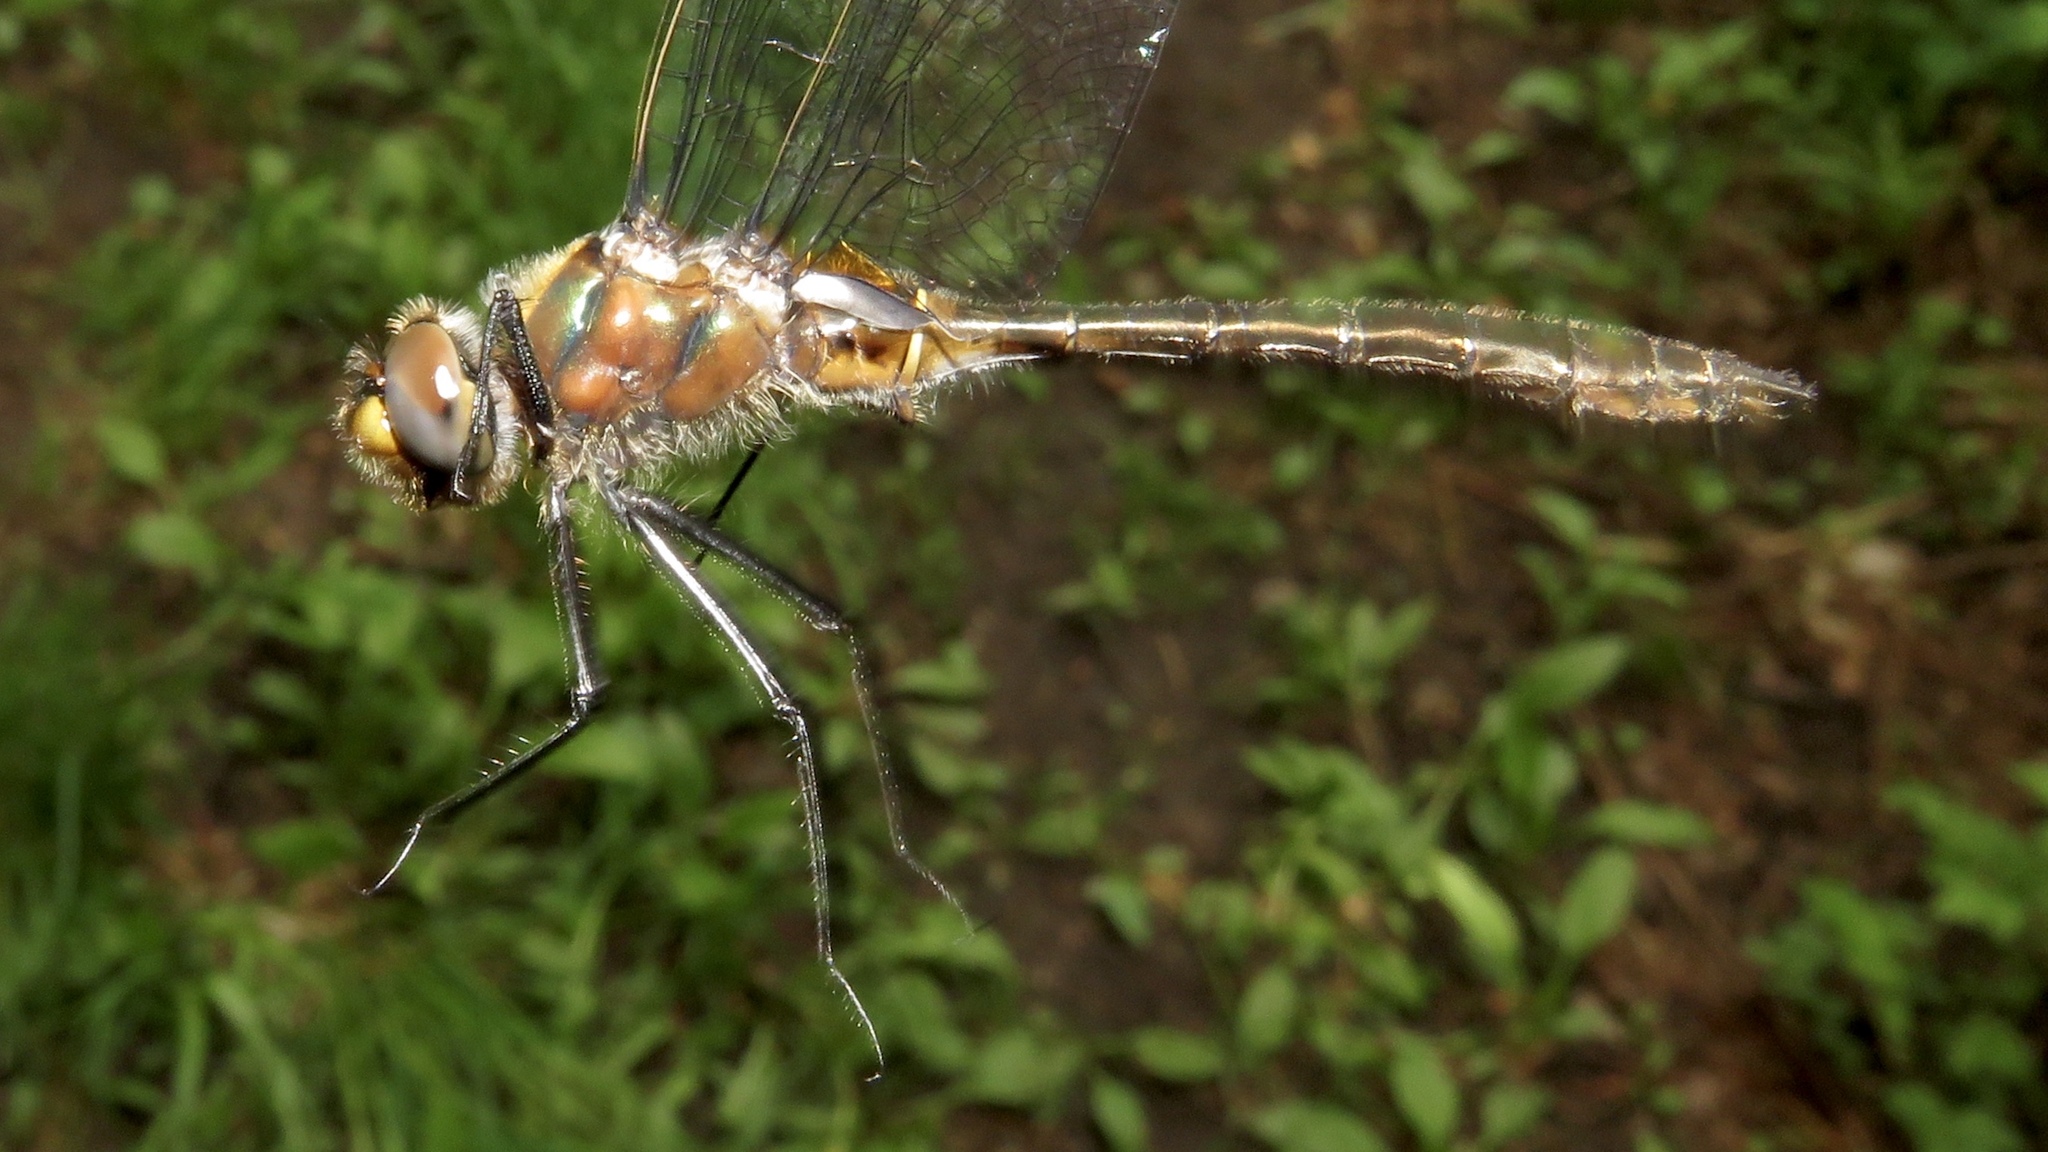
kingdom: Animalia
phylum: Arthropoda
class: Insecta
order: Odonata
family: Corduliidae
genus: Cordulia
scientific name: Cordulia shurtleffii
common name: American emerald
